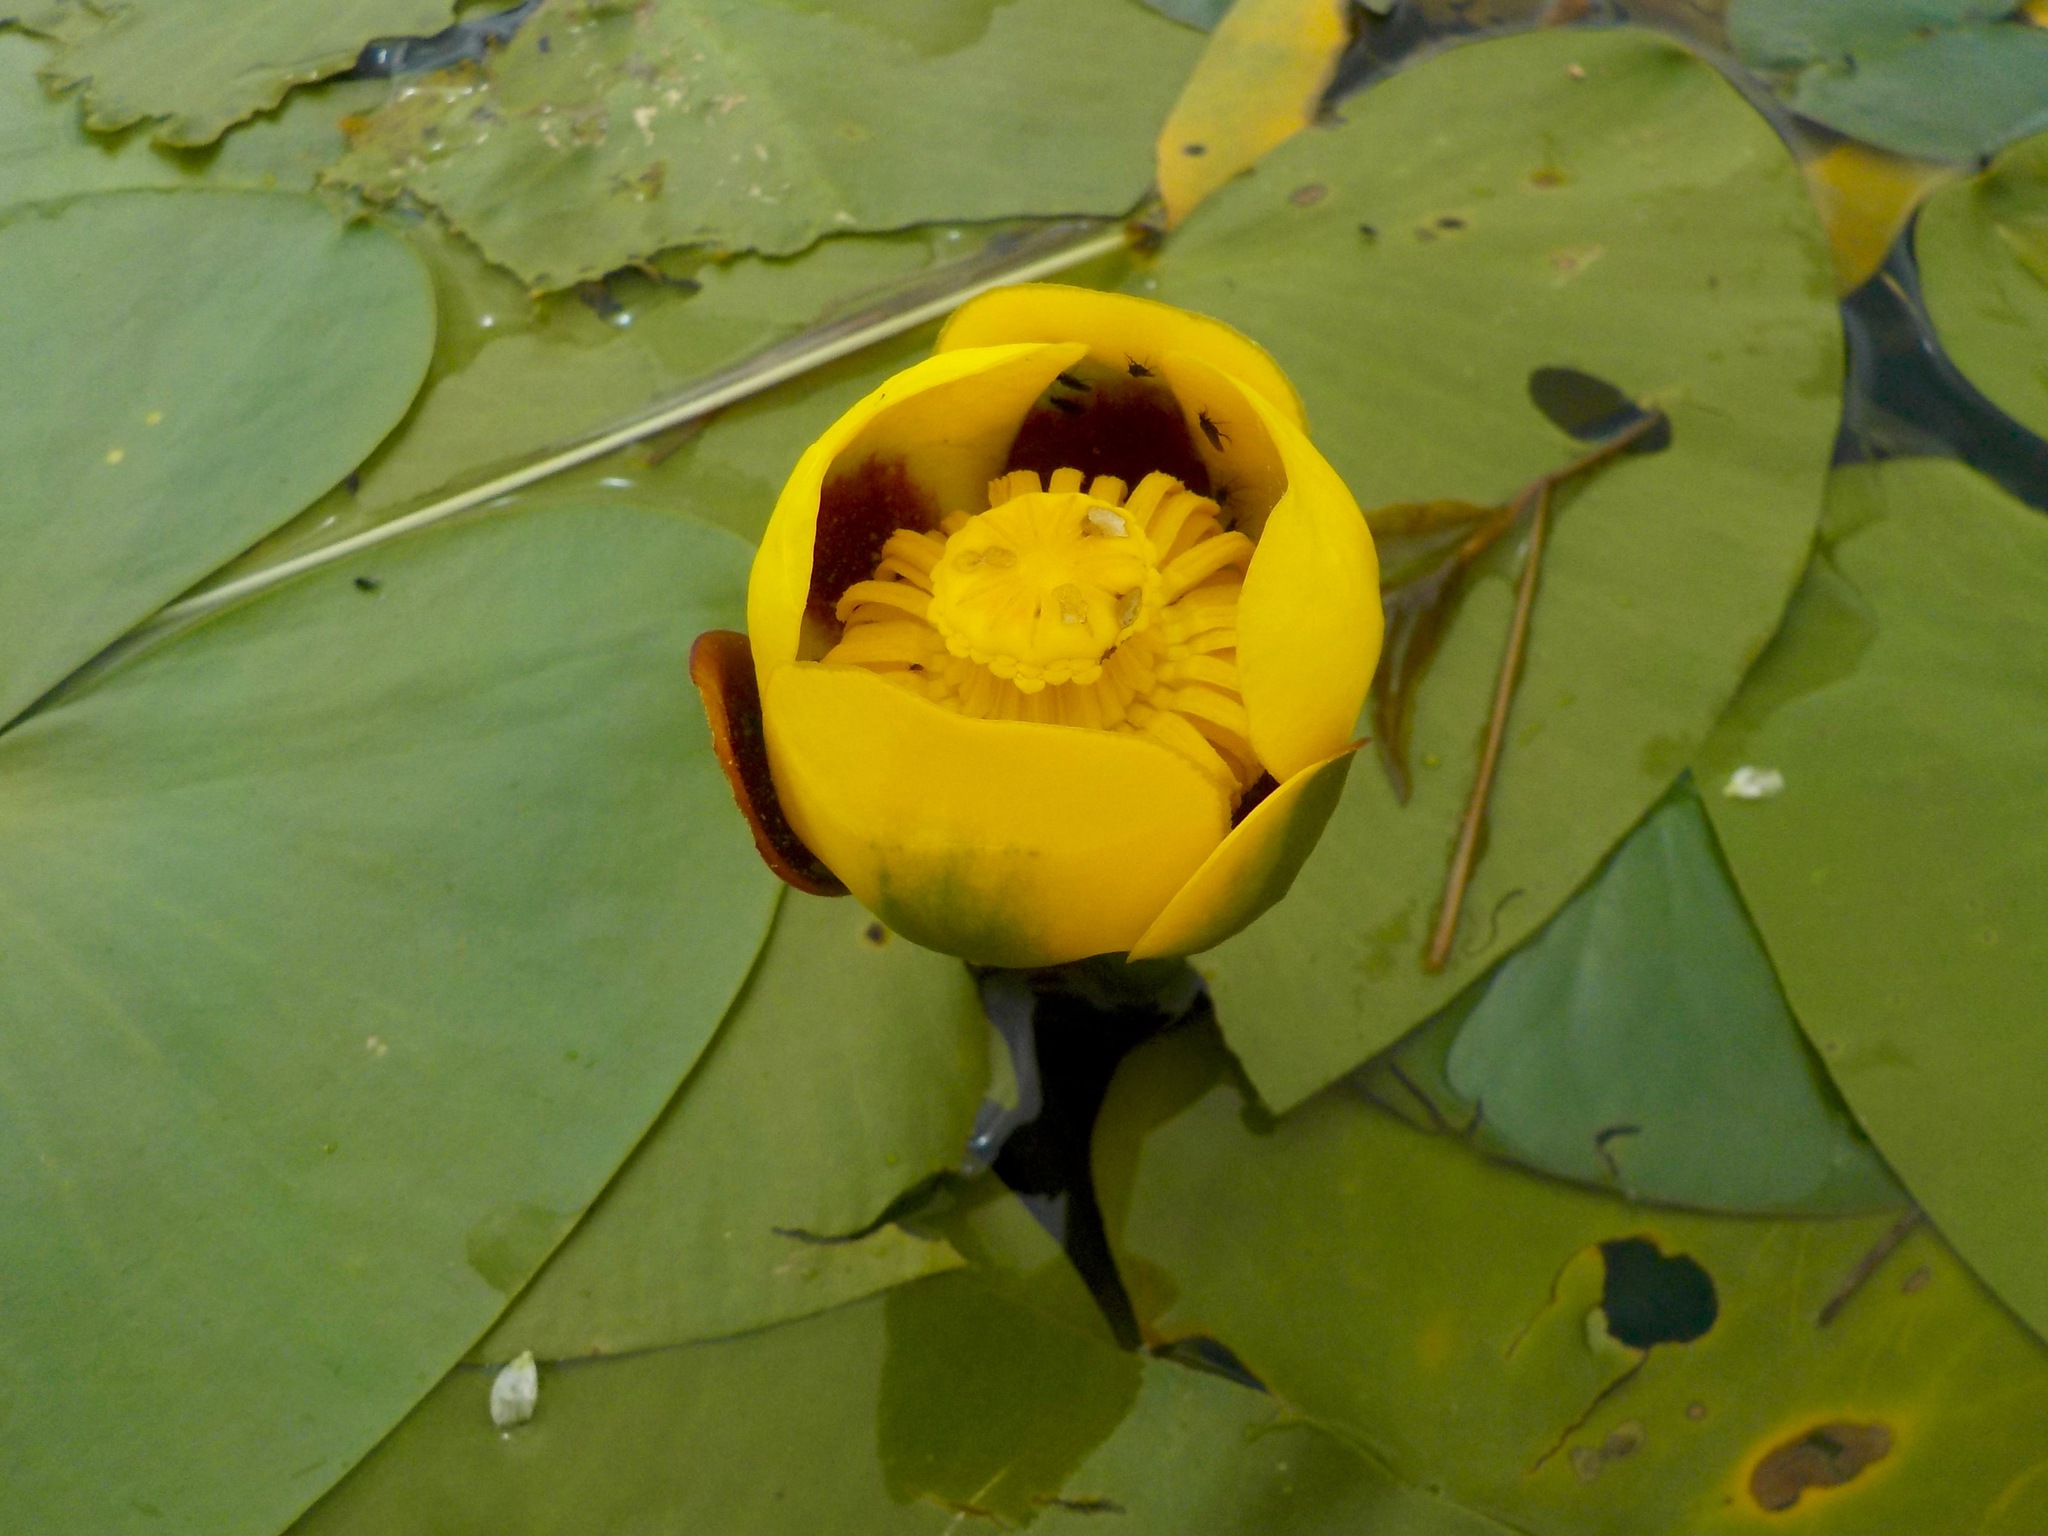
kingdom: Plantae
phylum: Tracheophyta
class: Magnoliopsida
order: Nymphaeales
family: Nymphaeaceae
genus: Nuphar
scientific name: Nuphar variegata
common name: Beaver-root
